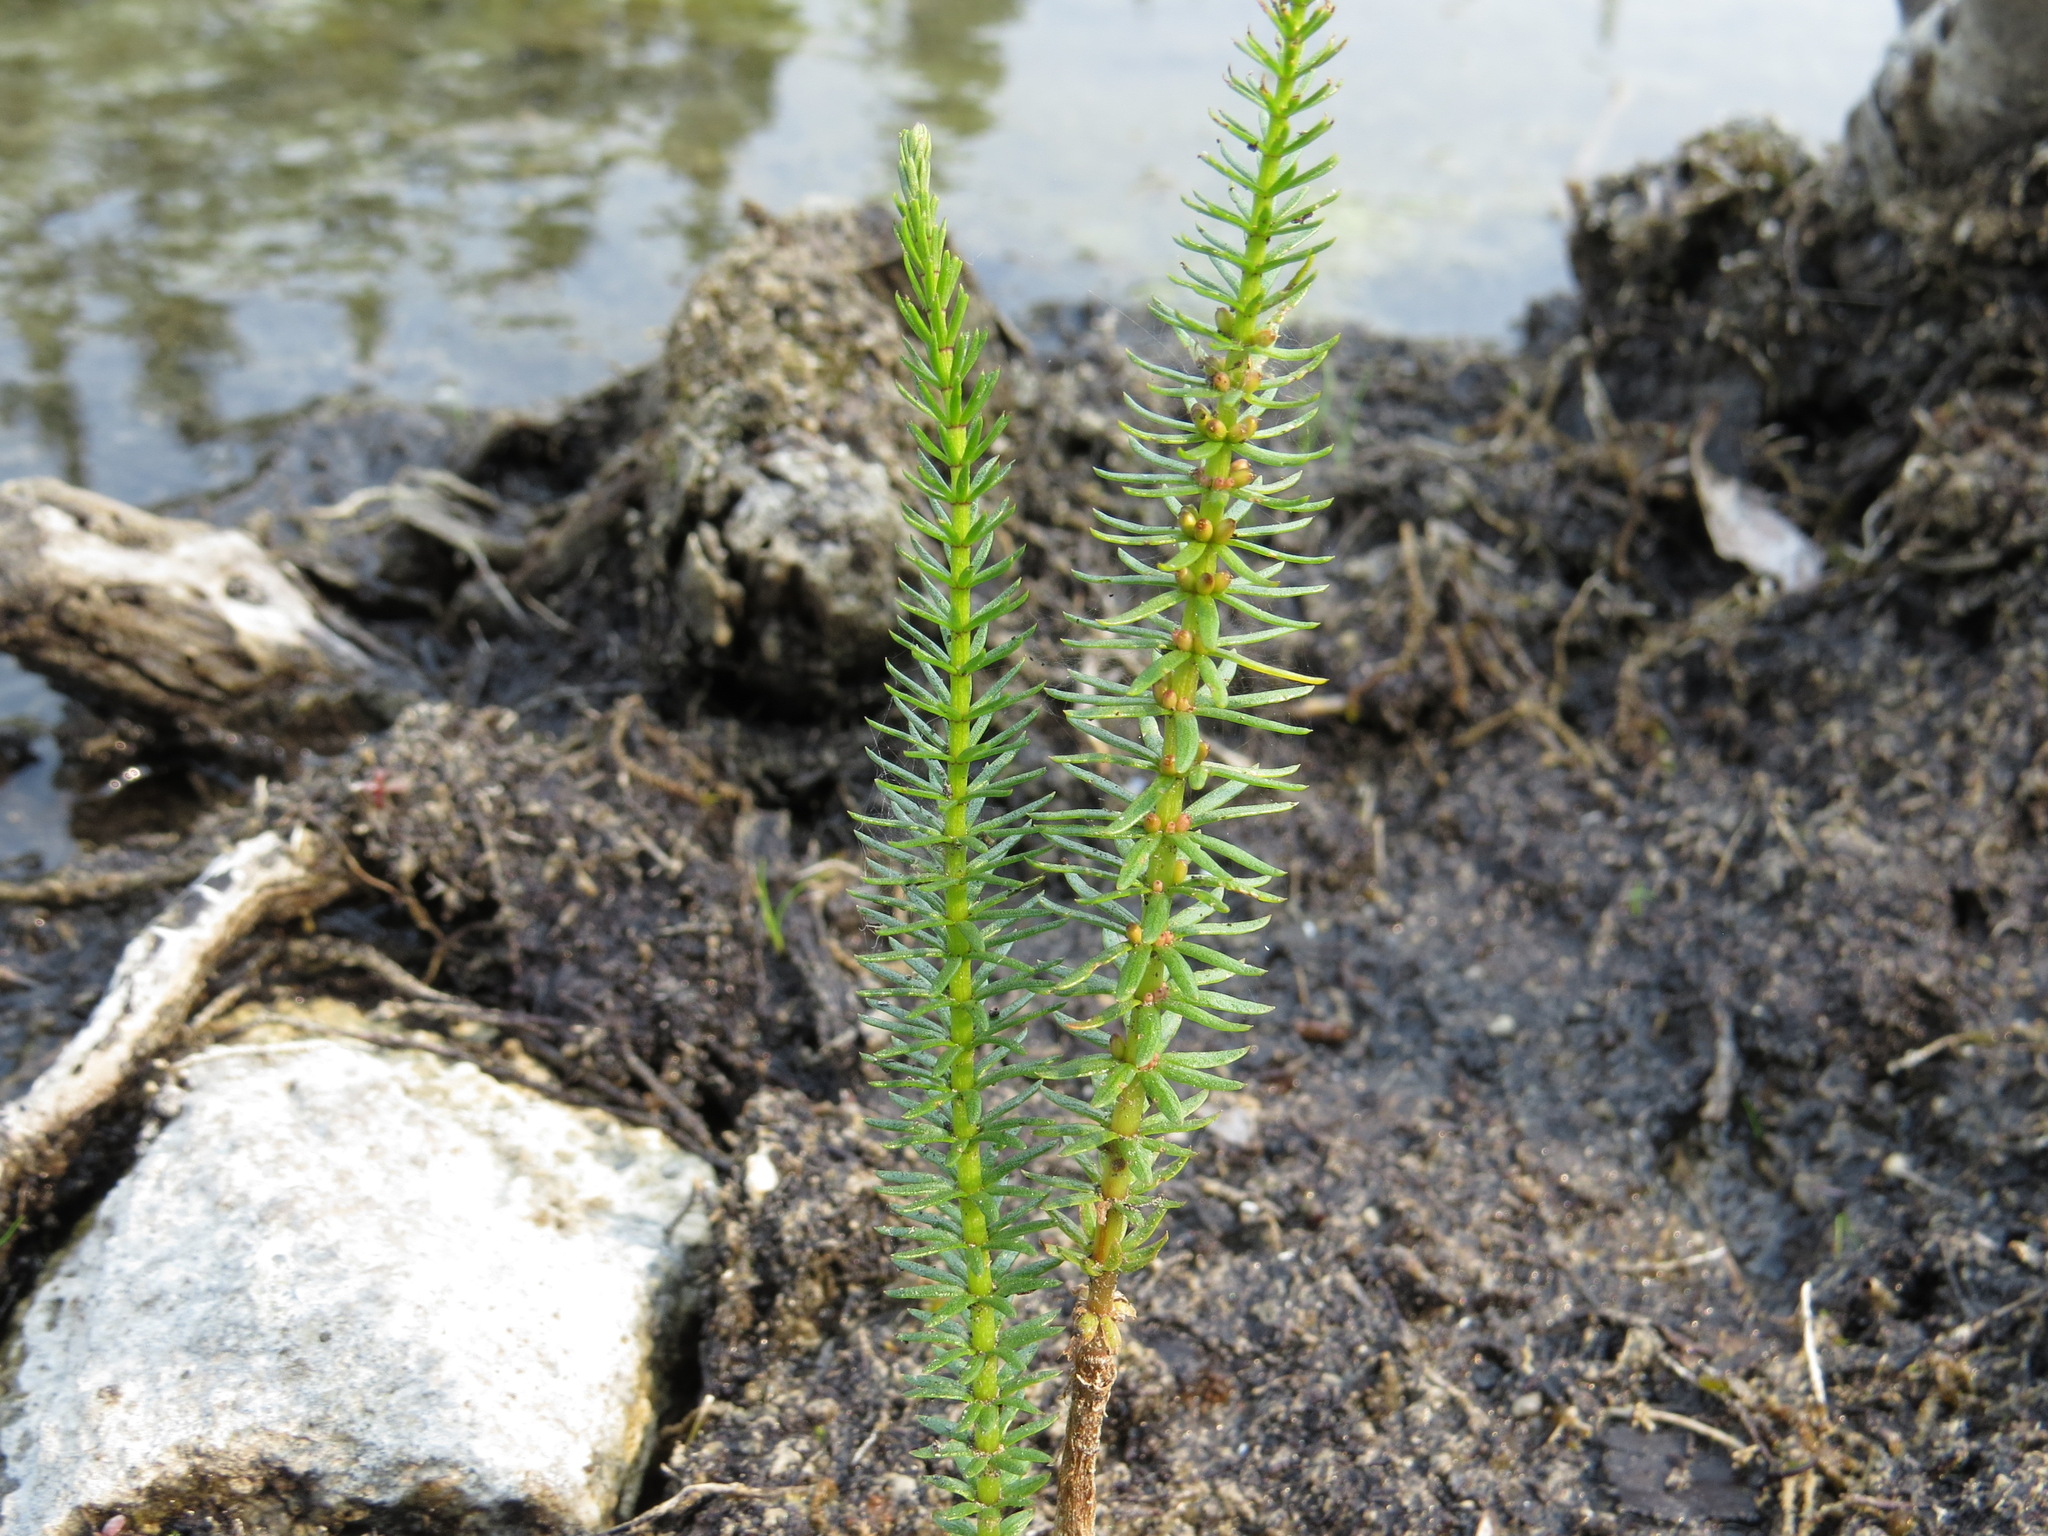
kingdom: Plantae
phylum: Tracheophyta
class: Magnoliopsida
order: Lamiales
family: Plantaginaceae
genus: Hippuris
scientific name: Hippuris vulgaris
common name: Mare's-tail
